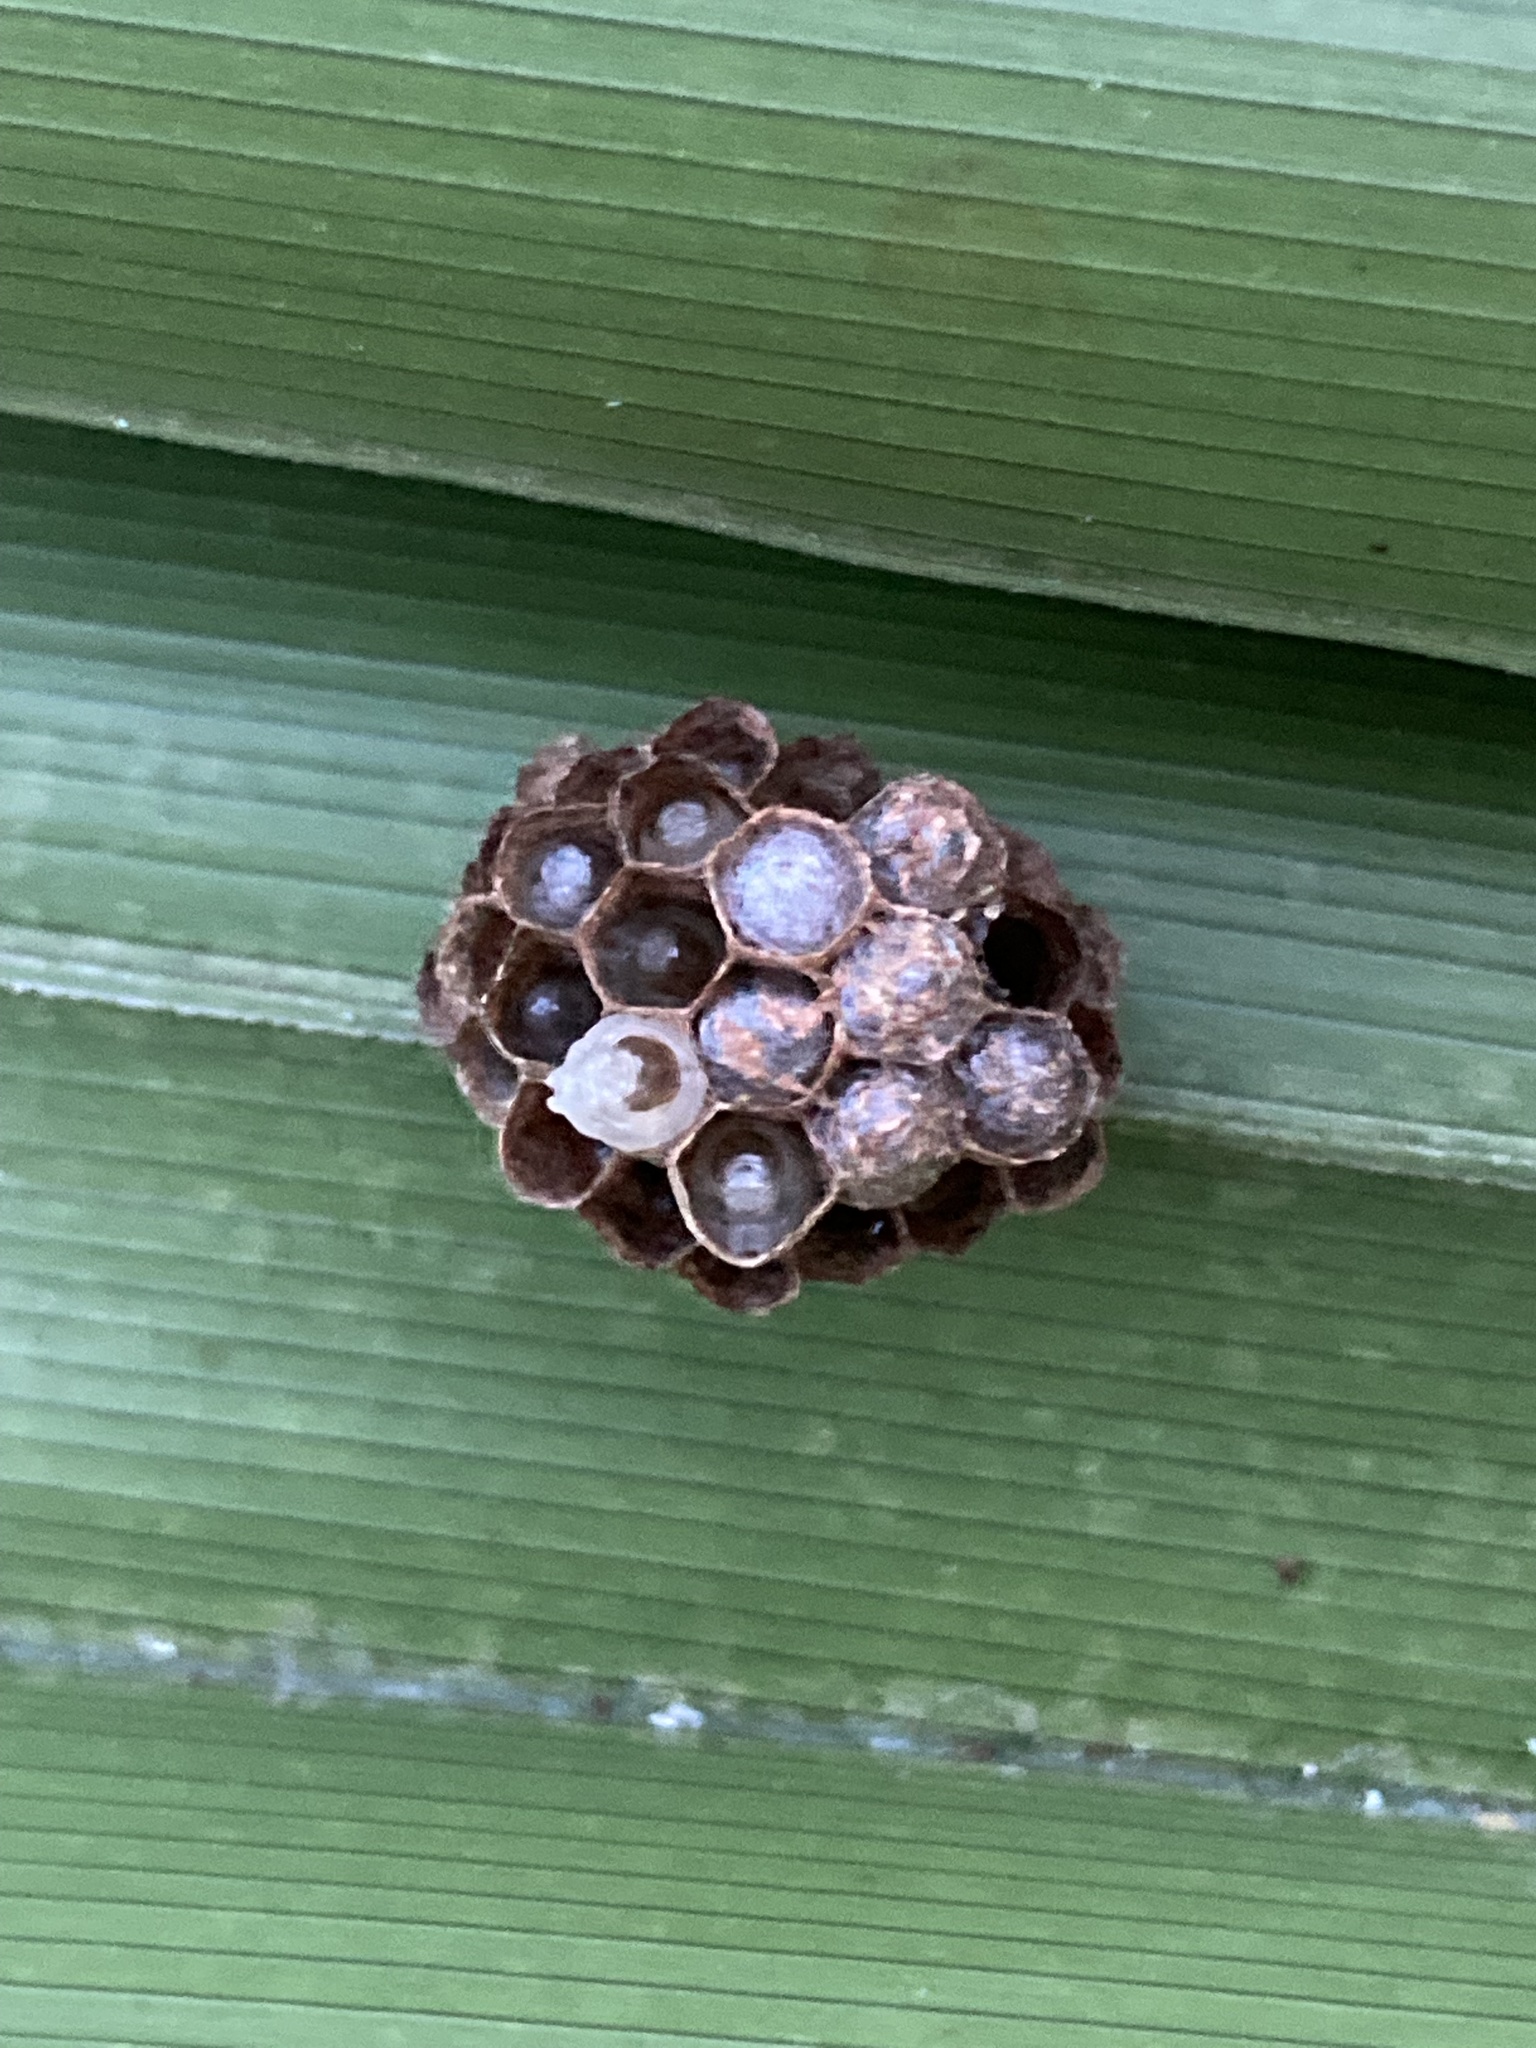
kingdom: Animalia
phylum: Arthropoda
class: Insecta
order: Hymenoptera
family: Vespidae
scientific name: Vespidae
